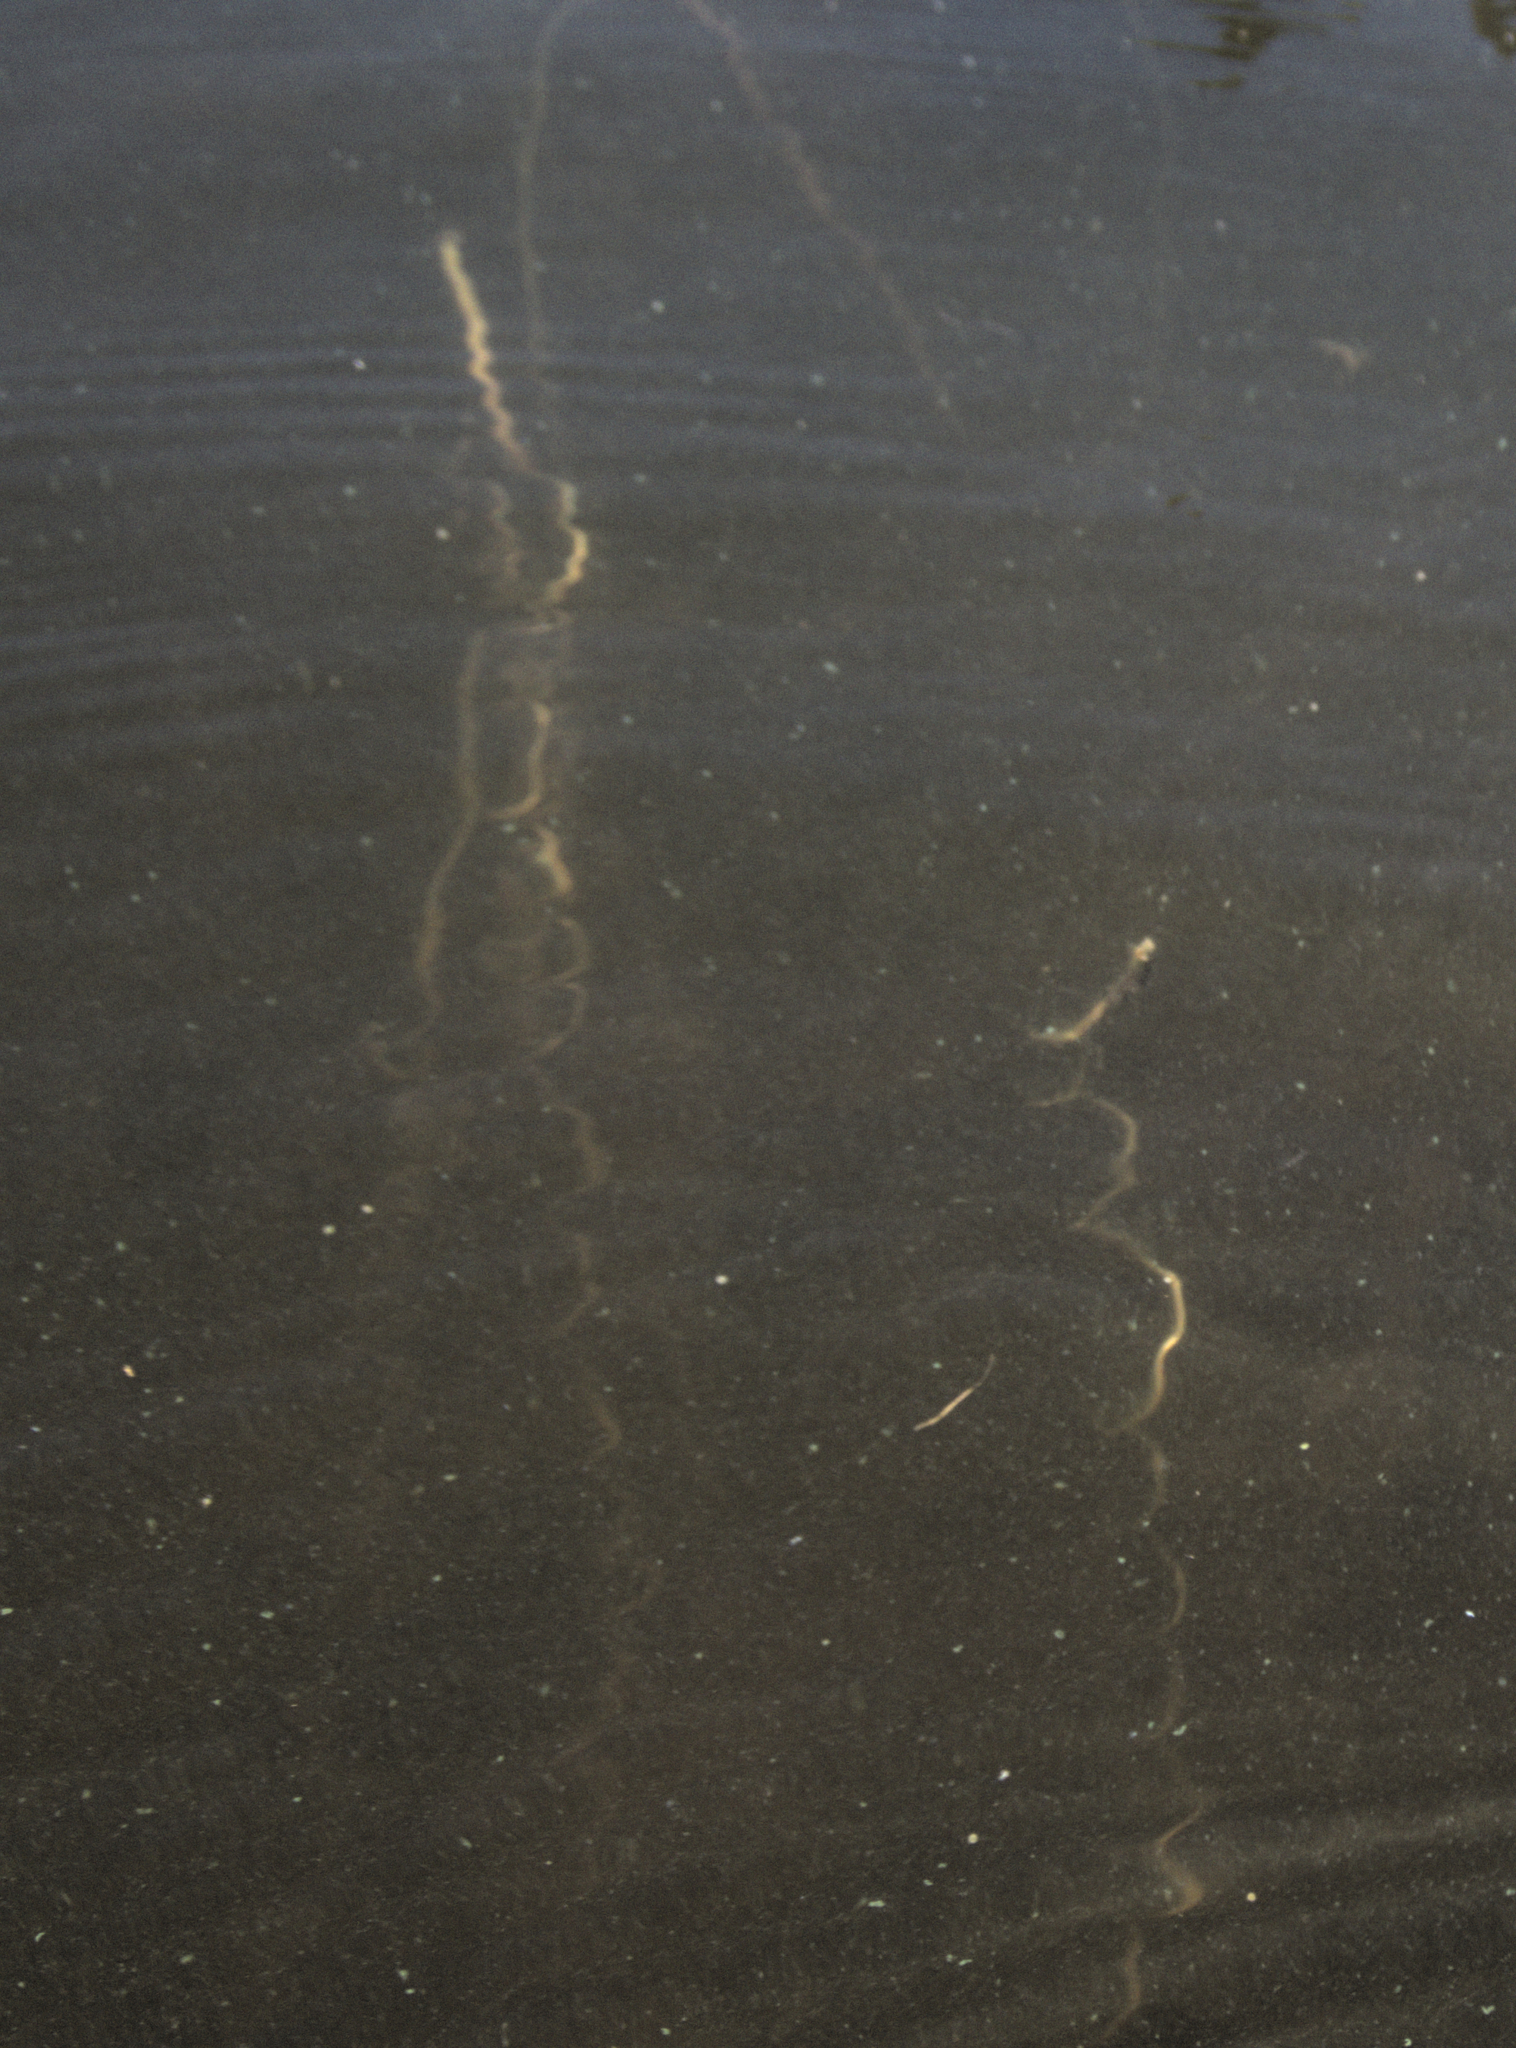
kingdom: Plantae
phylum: Tracheophyta
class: Liliopsida
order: Alismatales
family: Hydrocharitaceae
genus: Vallisneria
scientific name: Vallisneria americana
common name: American eelgrass
